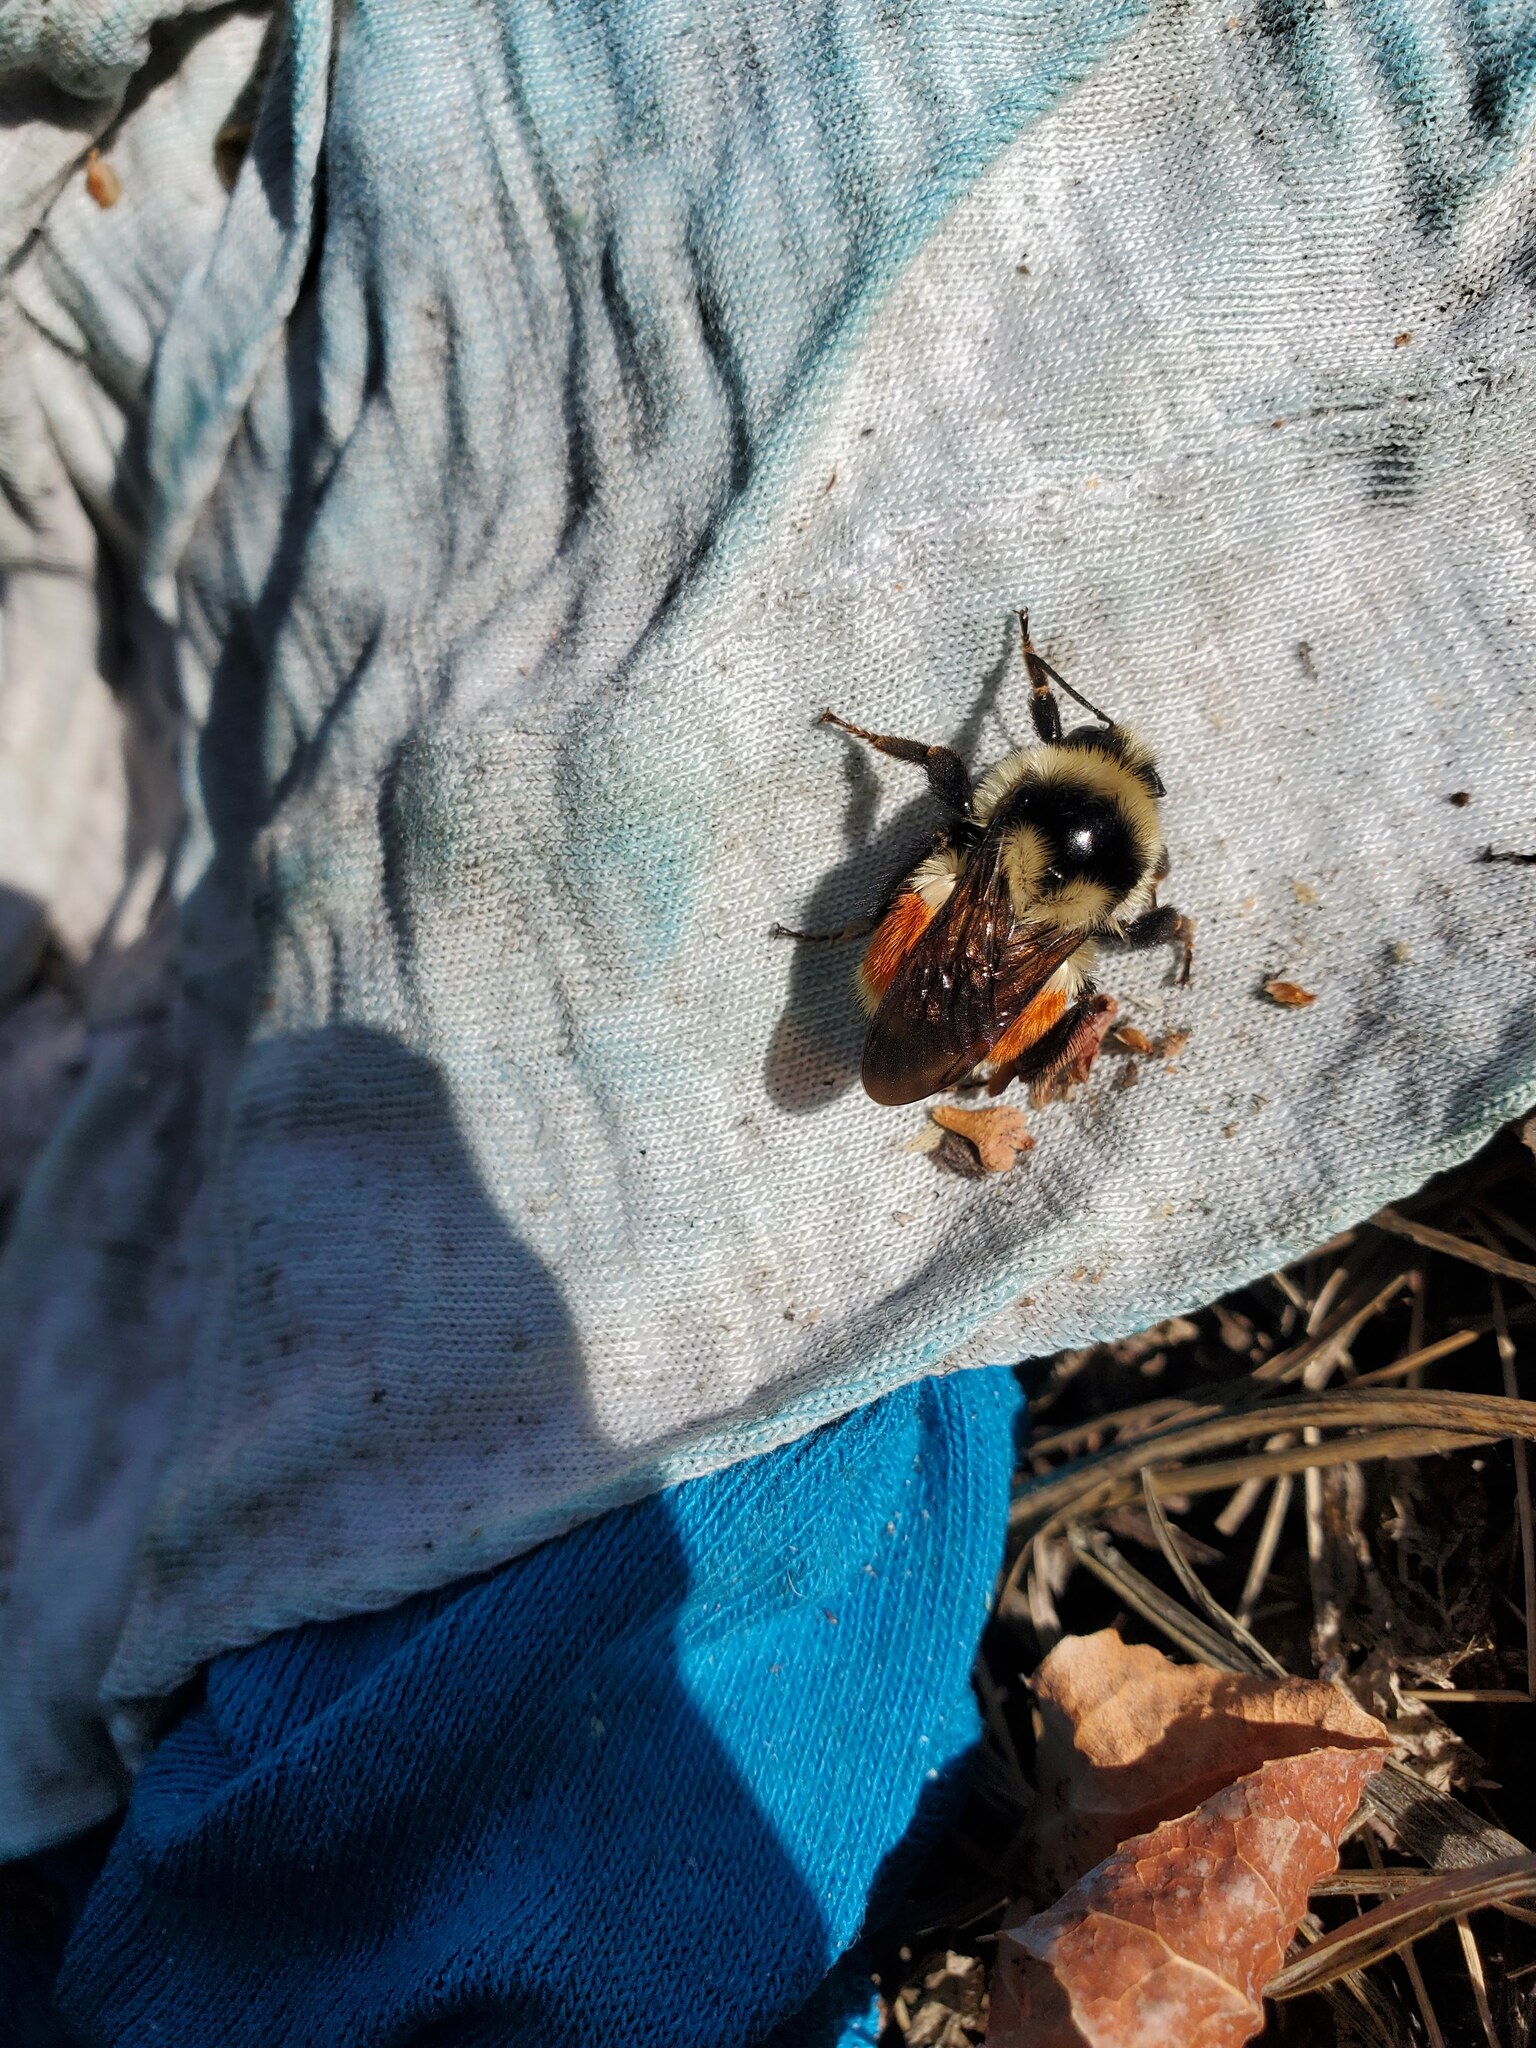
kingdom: Animalia
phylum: Arthropoda
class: Insecta
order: Hymenoptera
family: Apidae
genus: Bombus
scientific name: Bombus ternarius
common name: Tri-colored bumble bee
